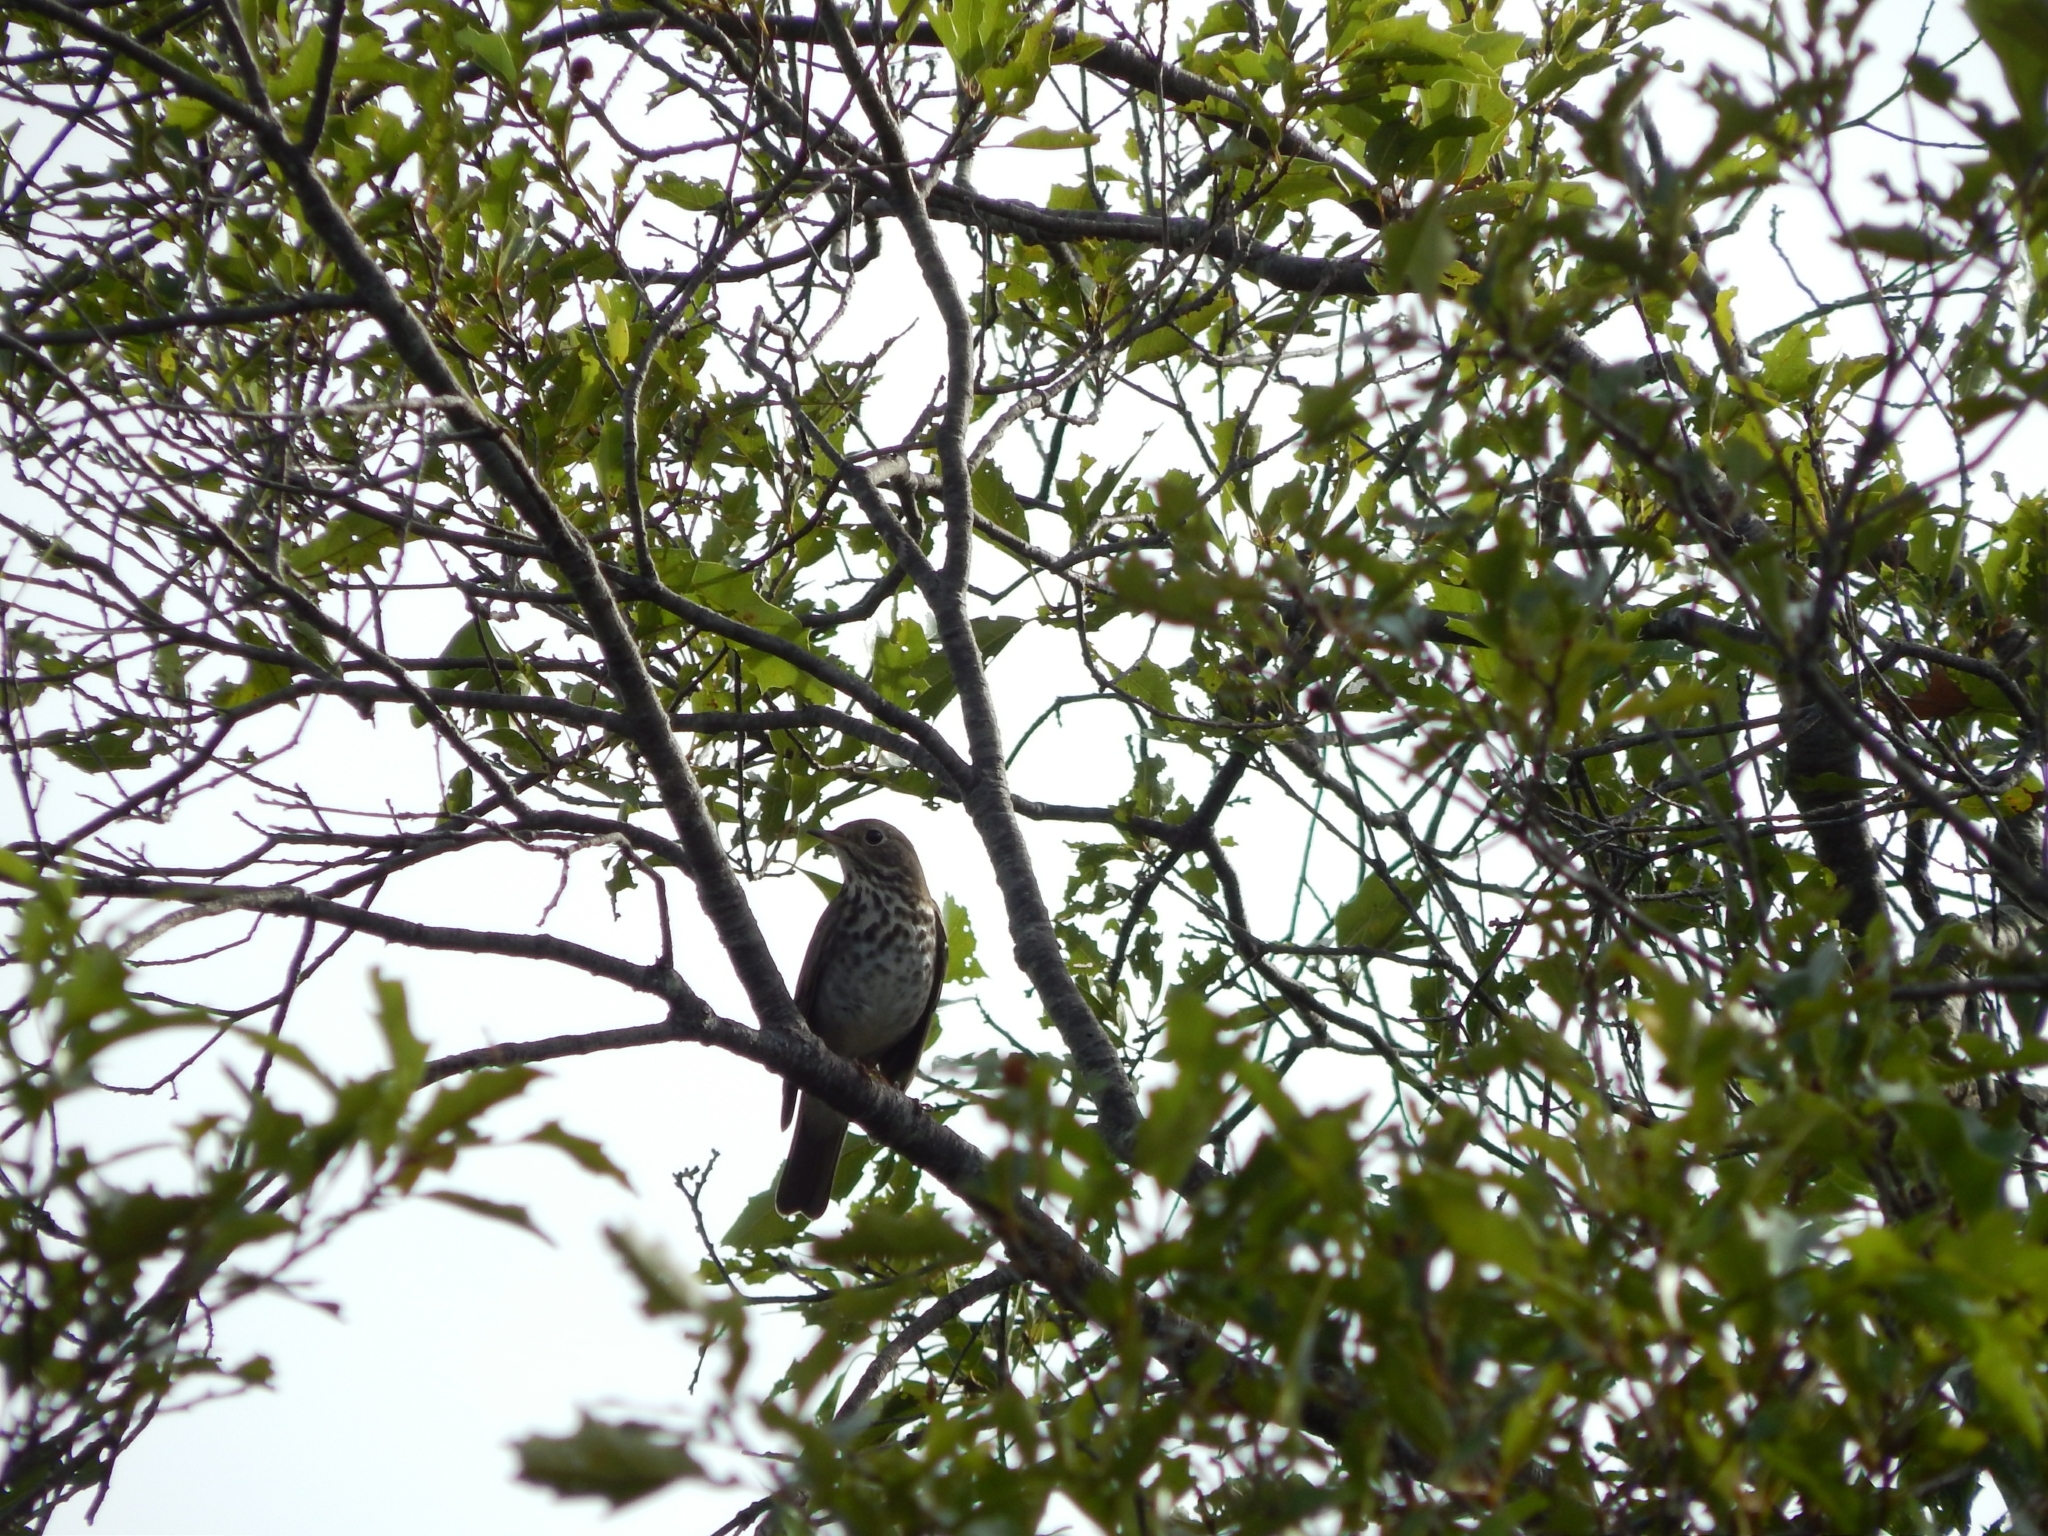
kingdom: Animalia
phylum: Chordata
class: Aves
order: Passeriformes
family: Turdidae
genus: Catharus
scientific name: Catharus guttatus
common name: Hermit thrush
